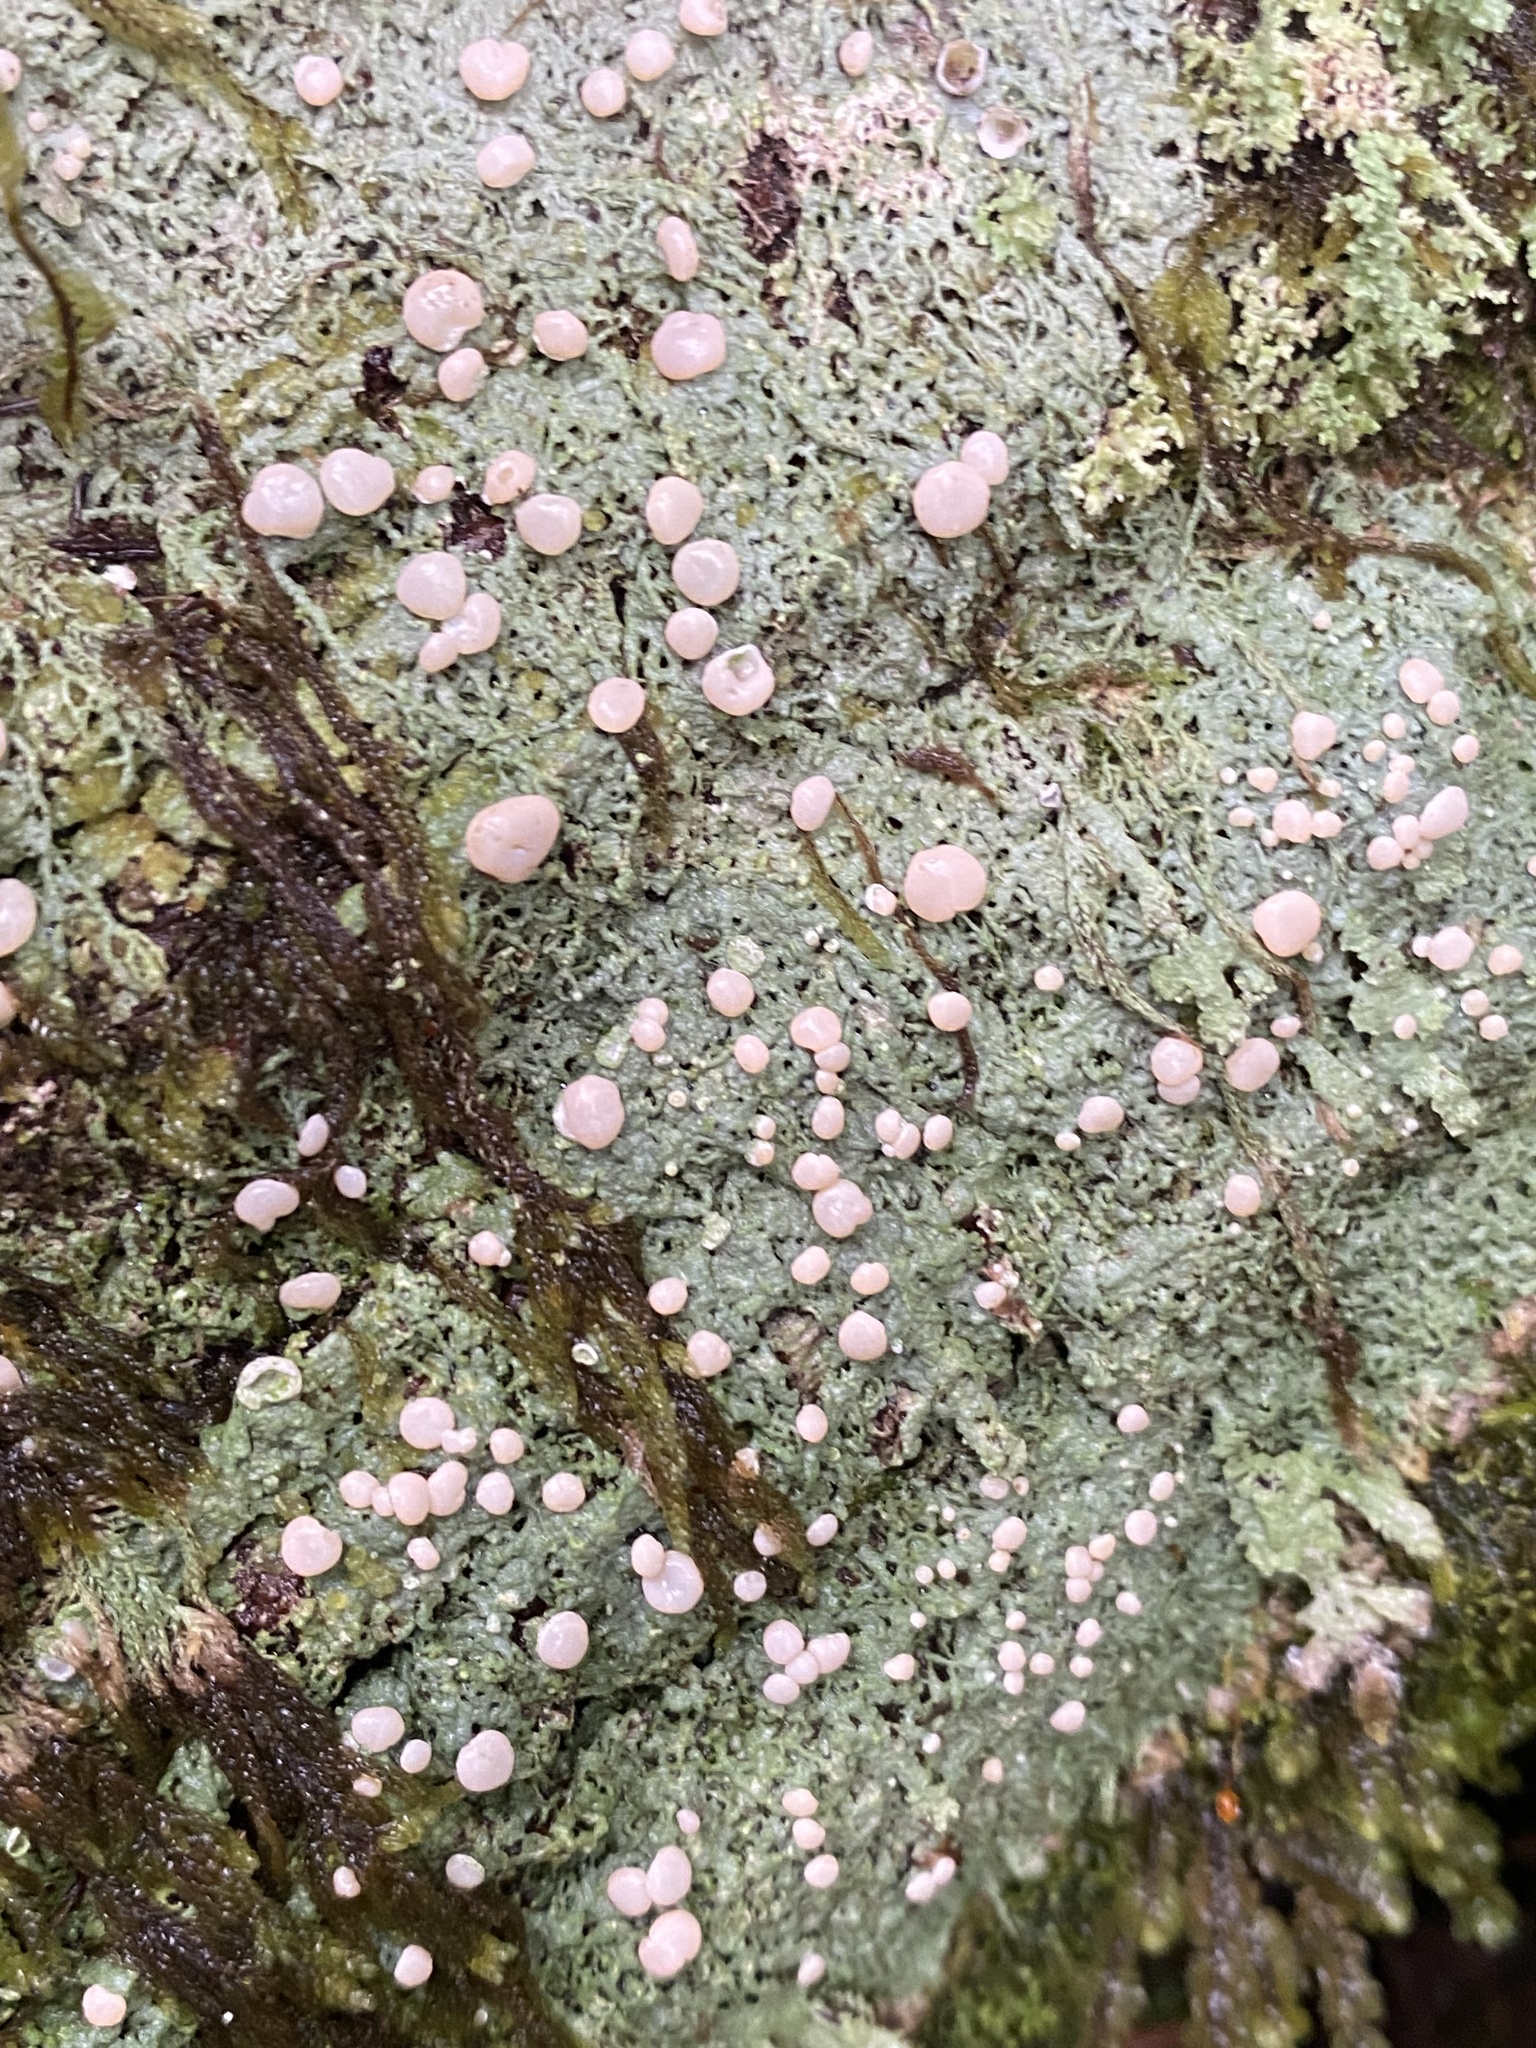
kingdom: Fungi
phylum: Ascomycota
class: Lecanoromycetes
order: Pertusariales
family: Icmadophilaceae
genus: Icmadophila
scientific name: Icmadophila ericetorum
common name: Candy lichen
